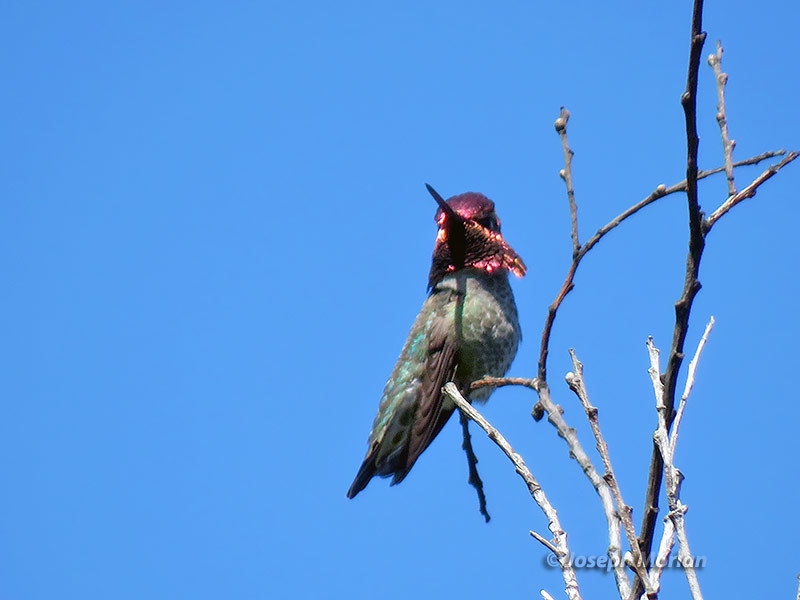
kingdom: Animalia
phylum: Chordata
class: Aves
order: Apodiformes
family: Trochilidae
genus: Calypte
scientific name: Calypte anna
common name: Anna's hummingbird
